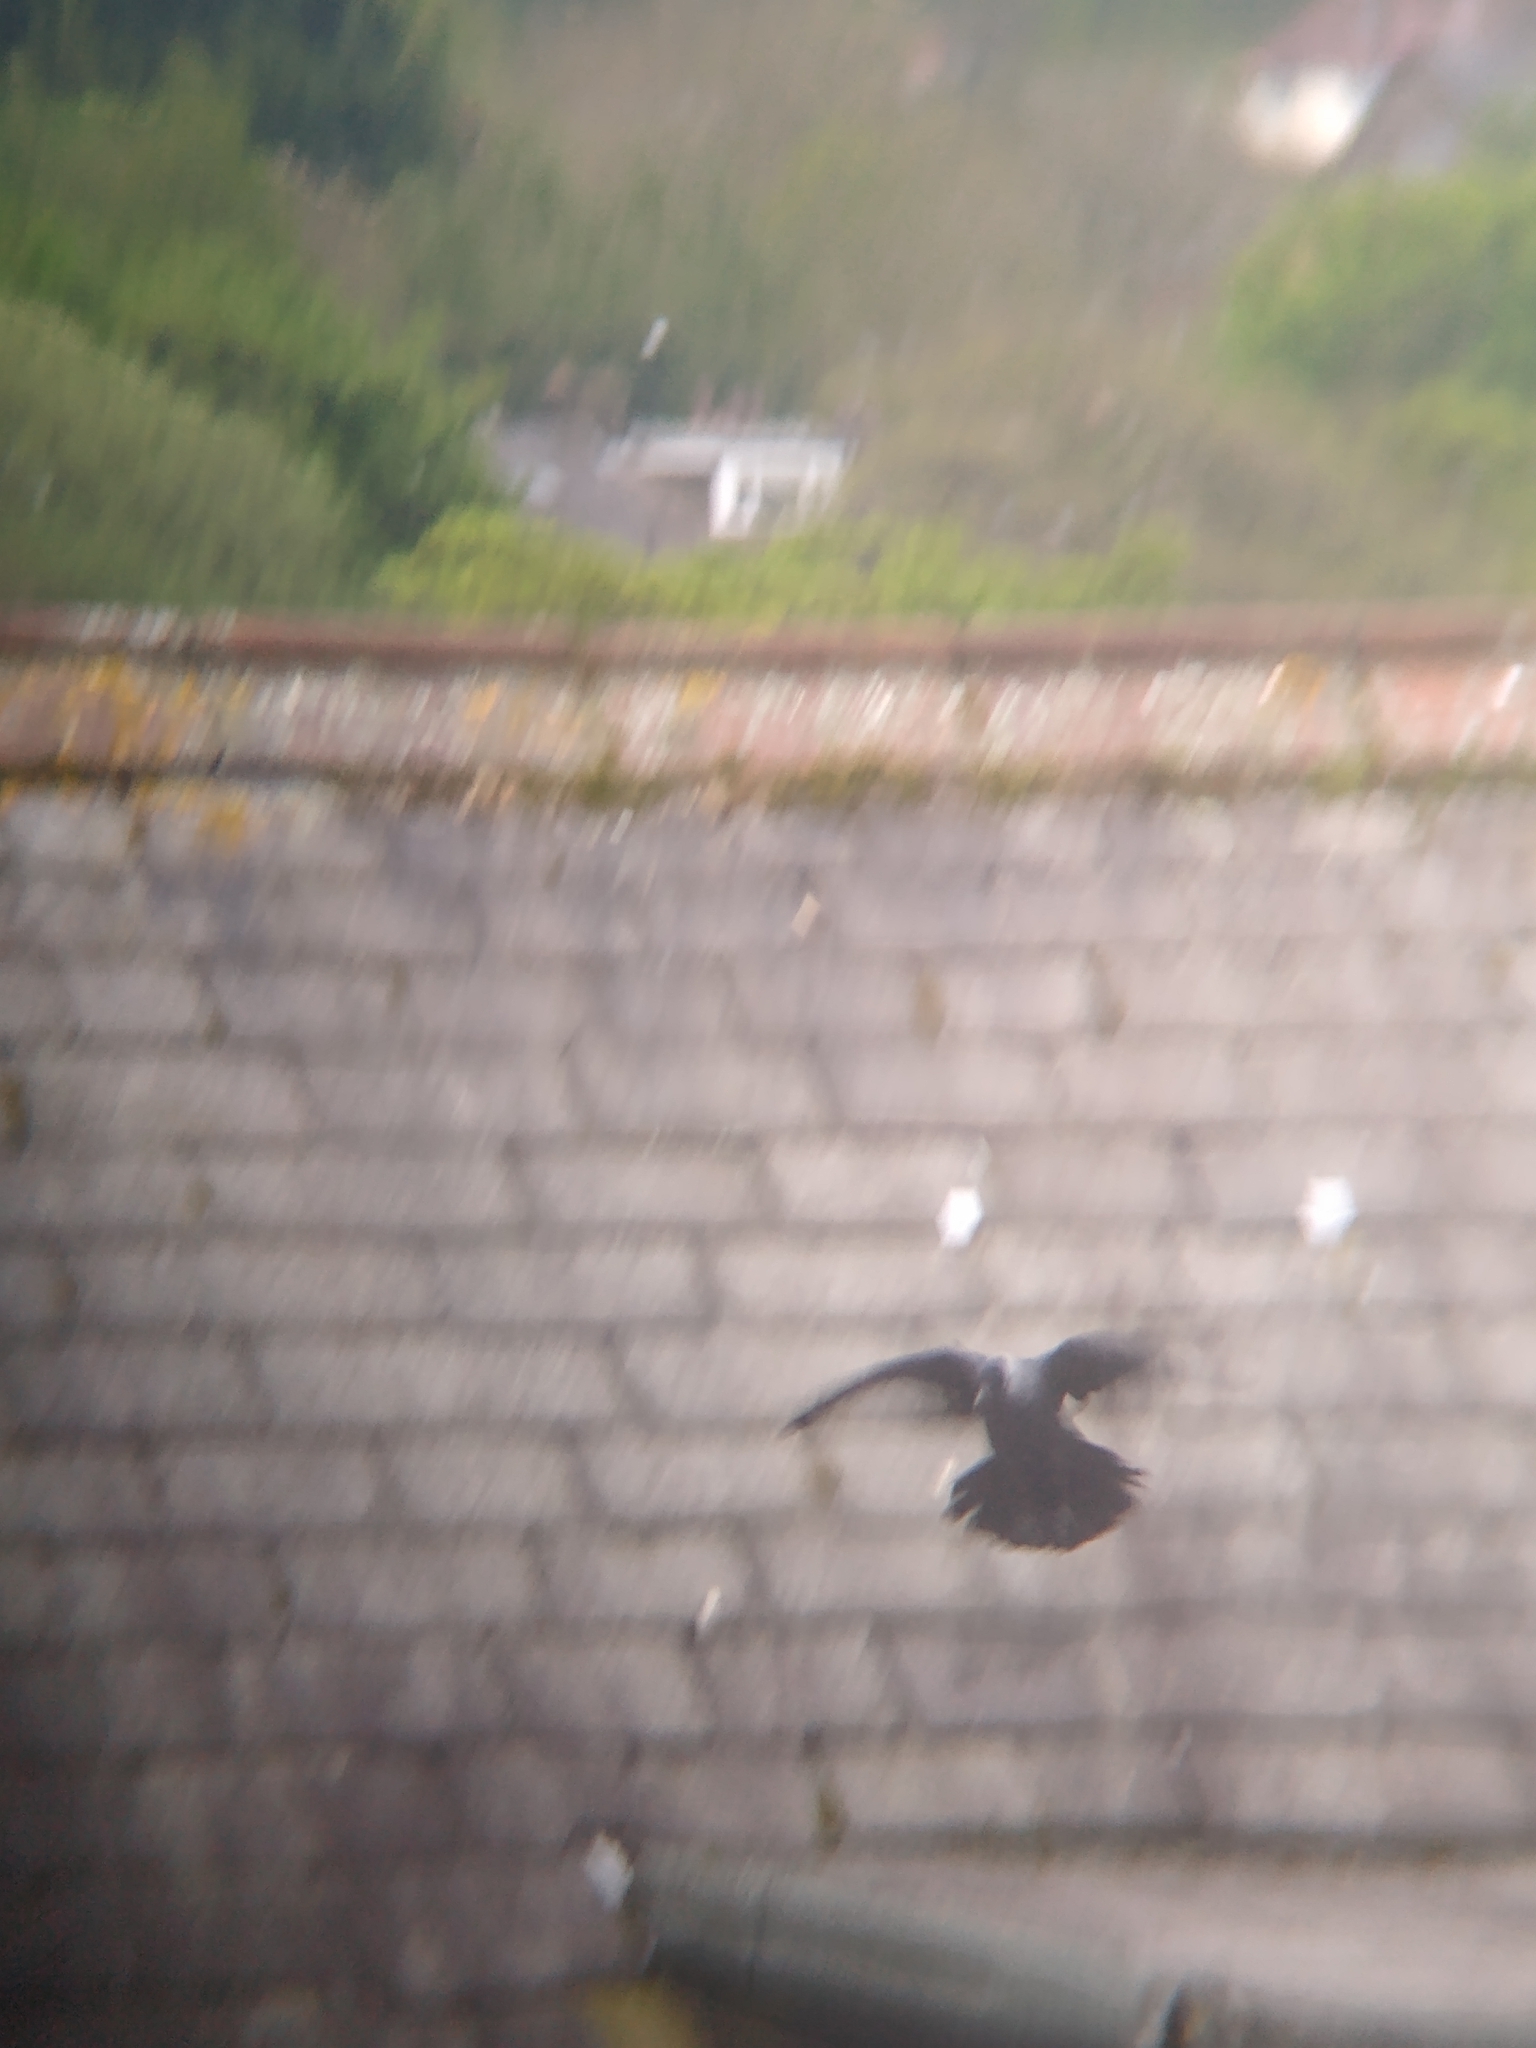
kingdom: Animalia
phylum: Chordata
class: Aves
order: Passeriformes
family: Corvidae
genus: Coloeus
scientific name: Coloeus monedula
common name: Western jackdaw
